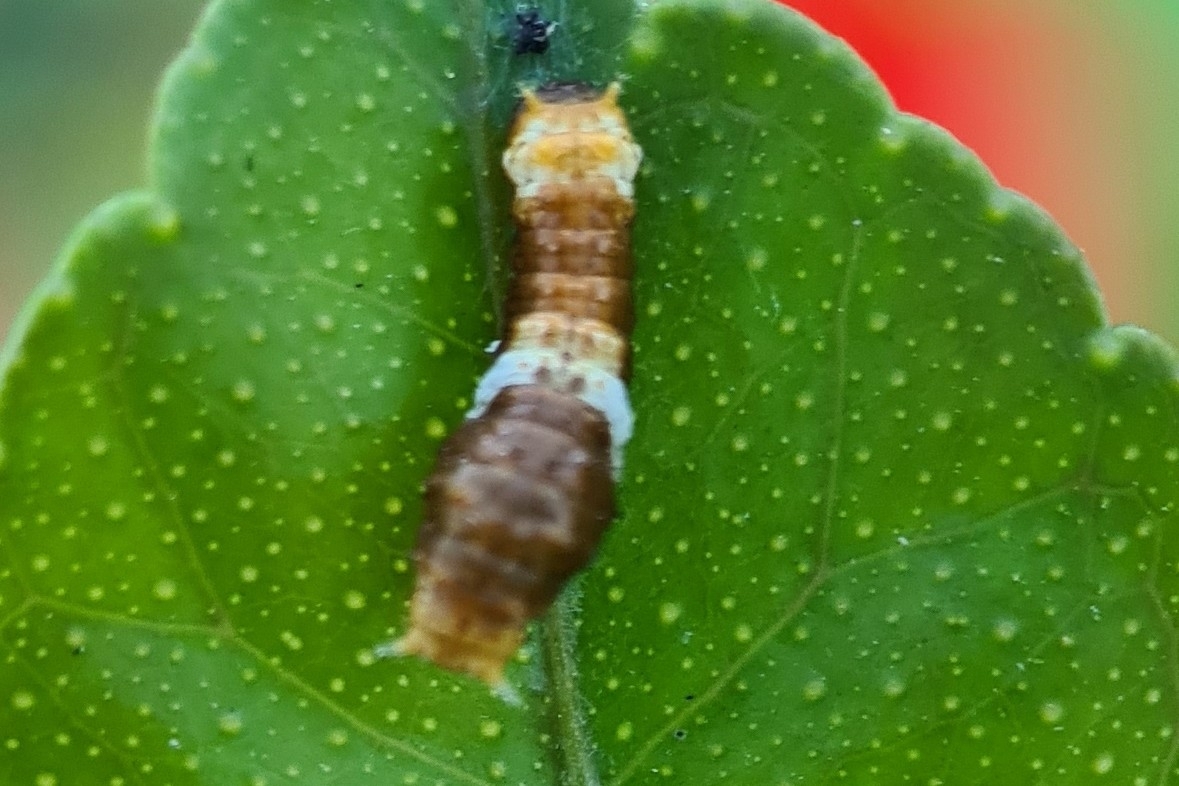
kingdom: Animalia
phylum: Arthropoda
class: Insecta
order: Lepidoptera
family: Lycaenidae
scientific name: Lycaenidae
